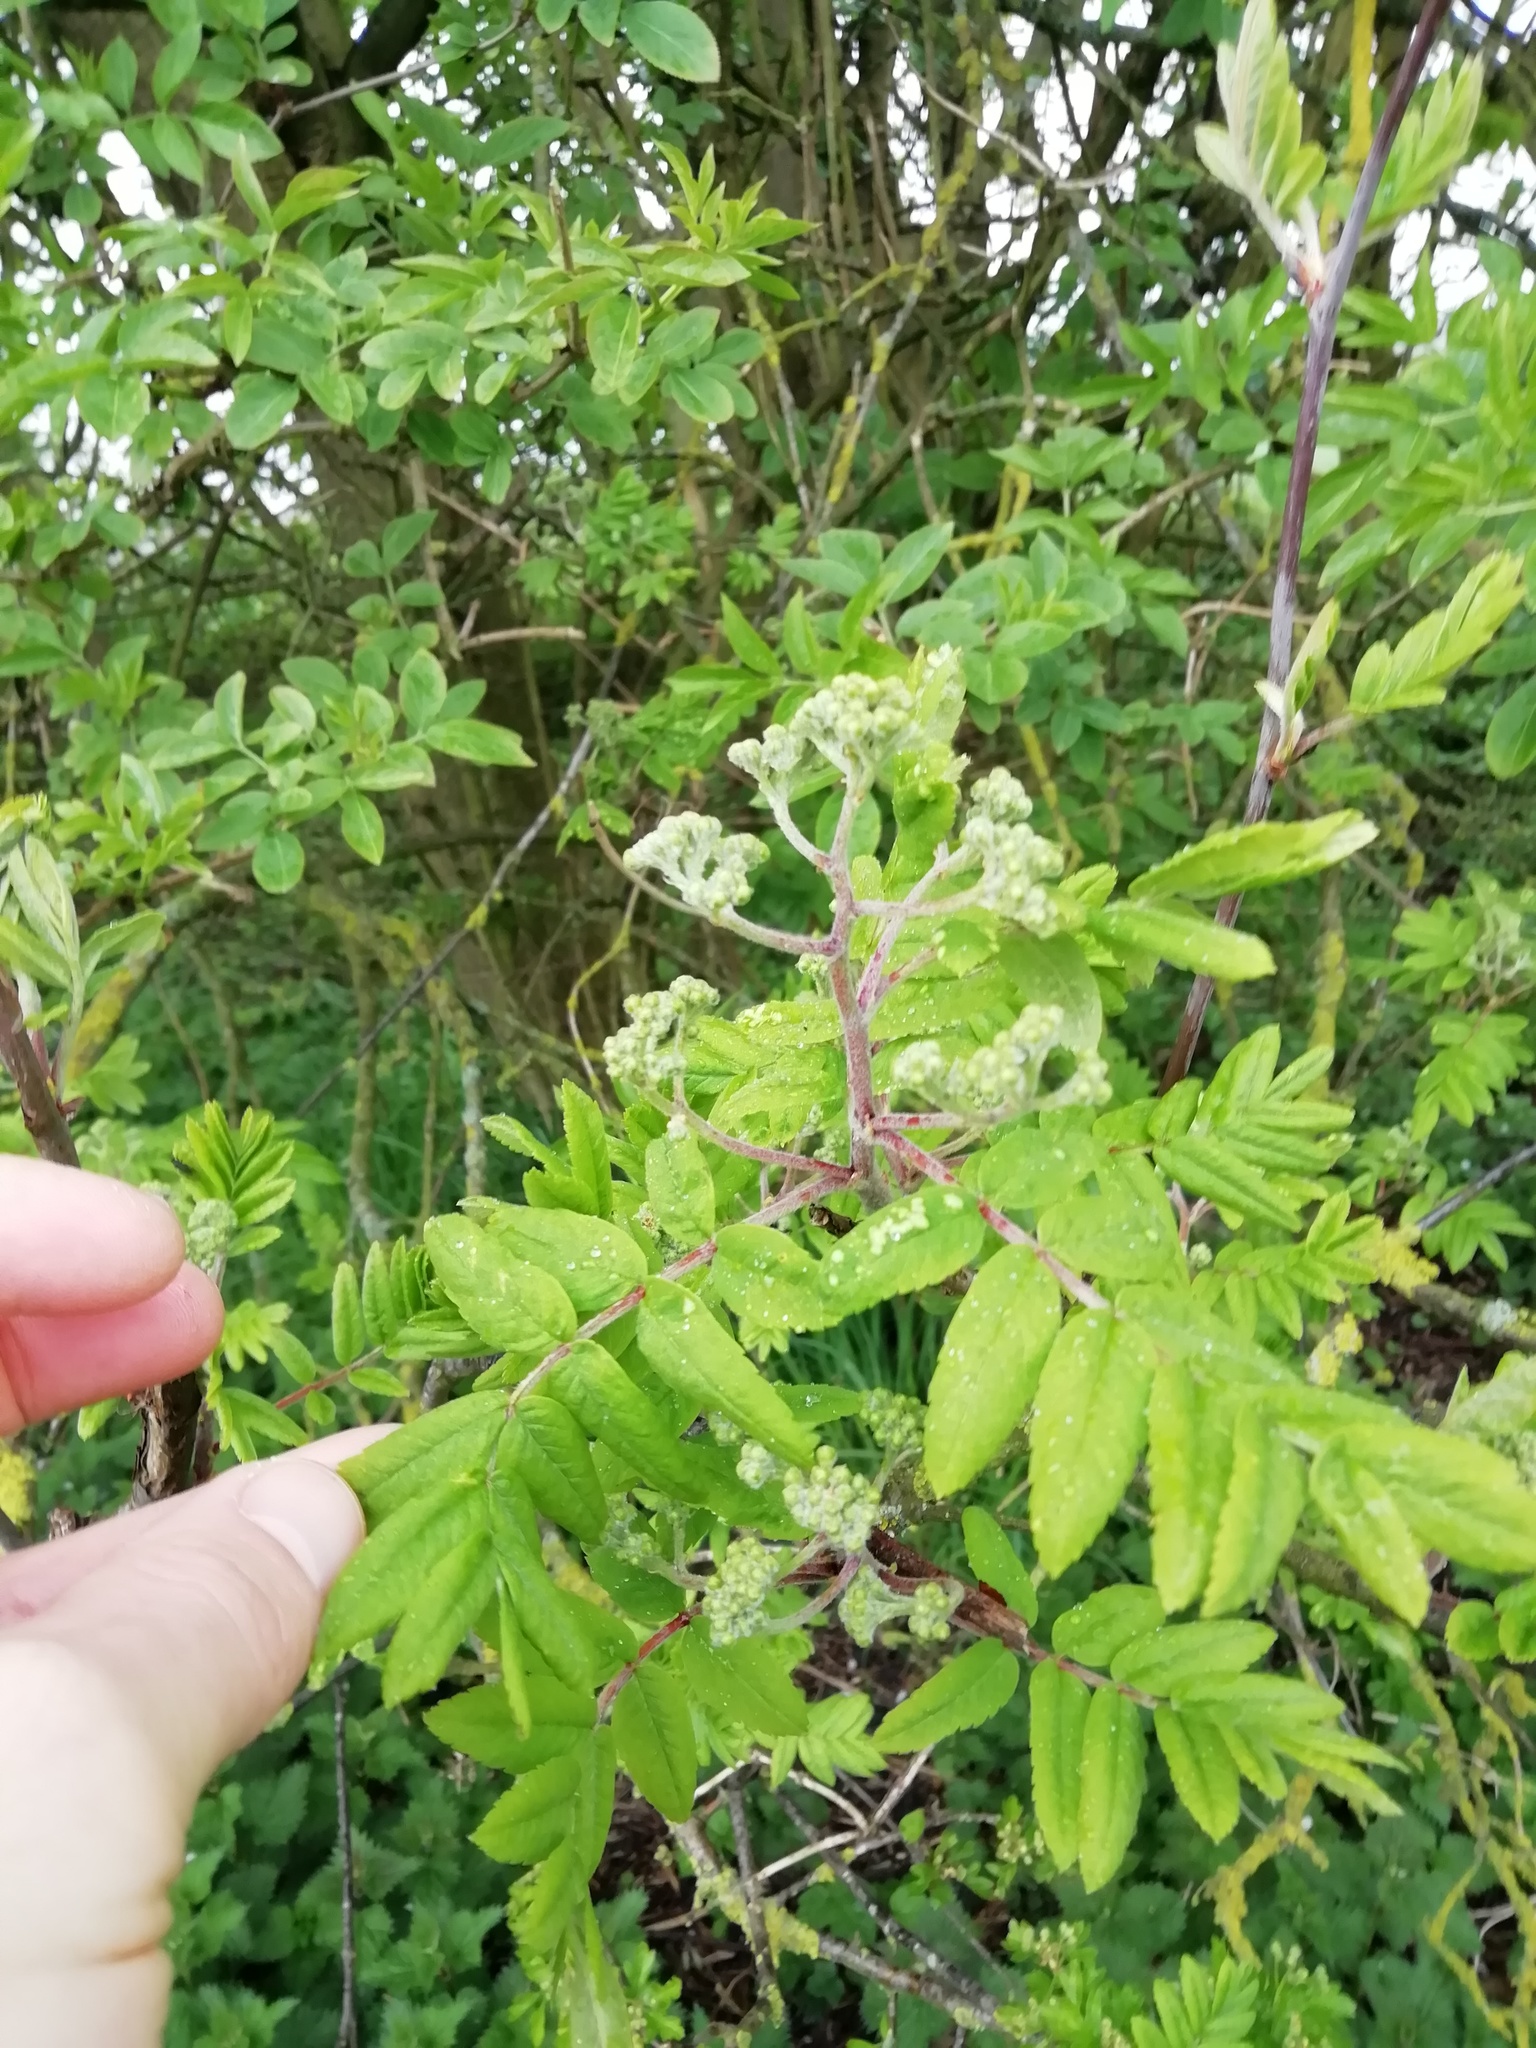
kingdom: Plantae
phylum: Tracheophyta
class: Magnoliopsida
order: Rosales
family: Rosaceae
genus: Sorbus
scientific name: Sorbus aucuparia
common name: Rowan
